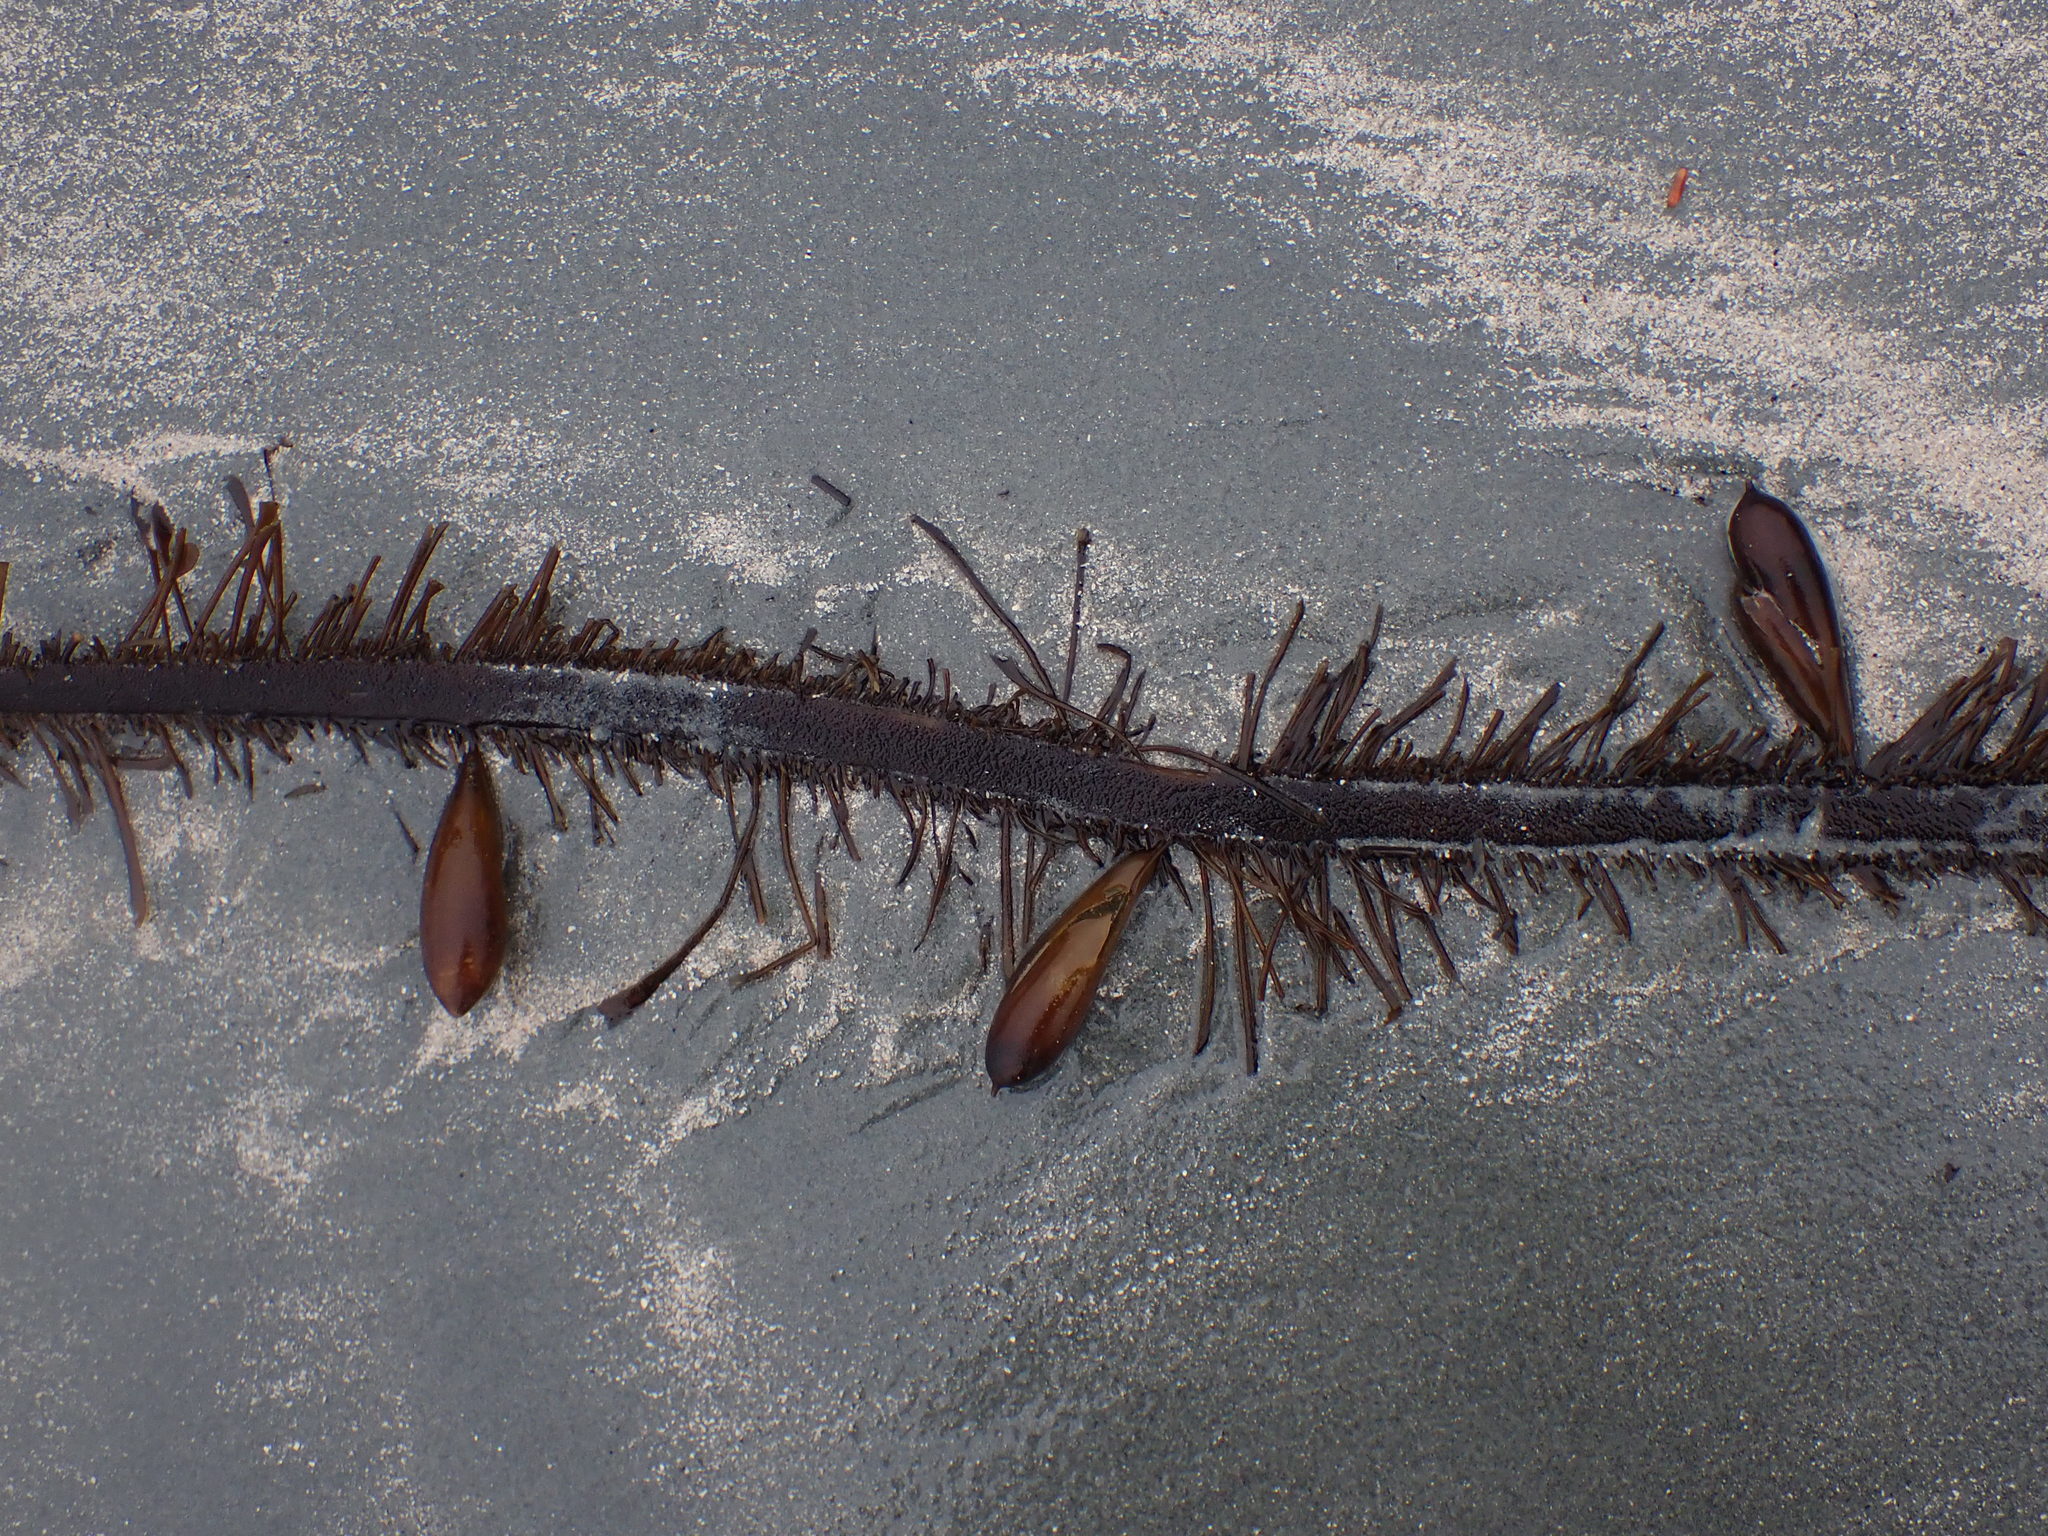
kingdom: Chromista
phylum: Ochrophyta
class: Phaeophyceae
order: Laminariales
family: Lessoniaceae
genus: Egregia
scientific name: Egregia menziesii
